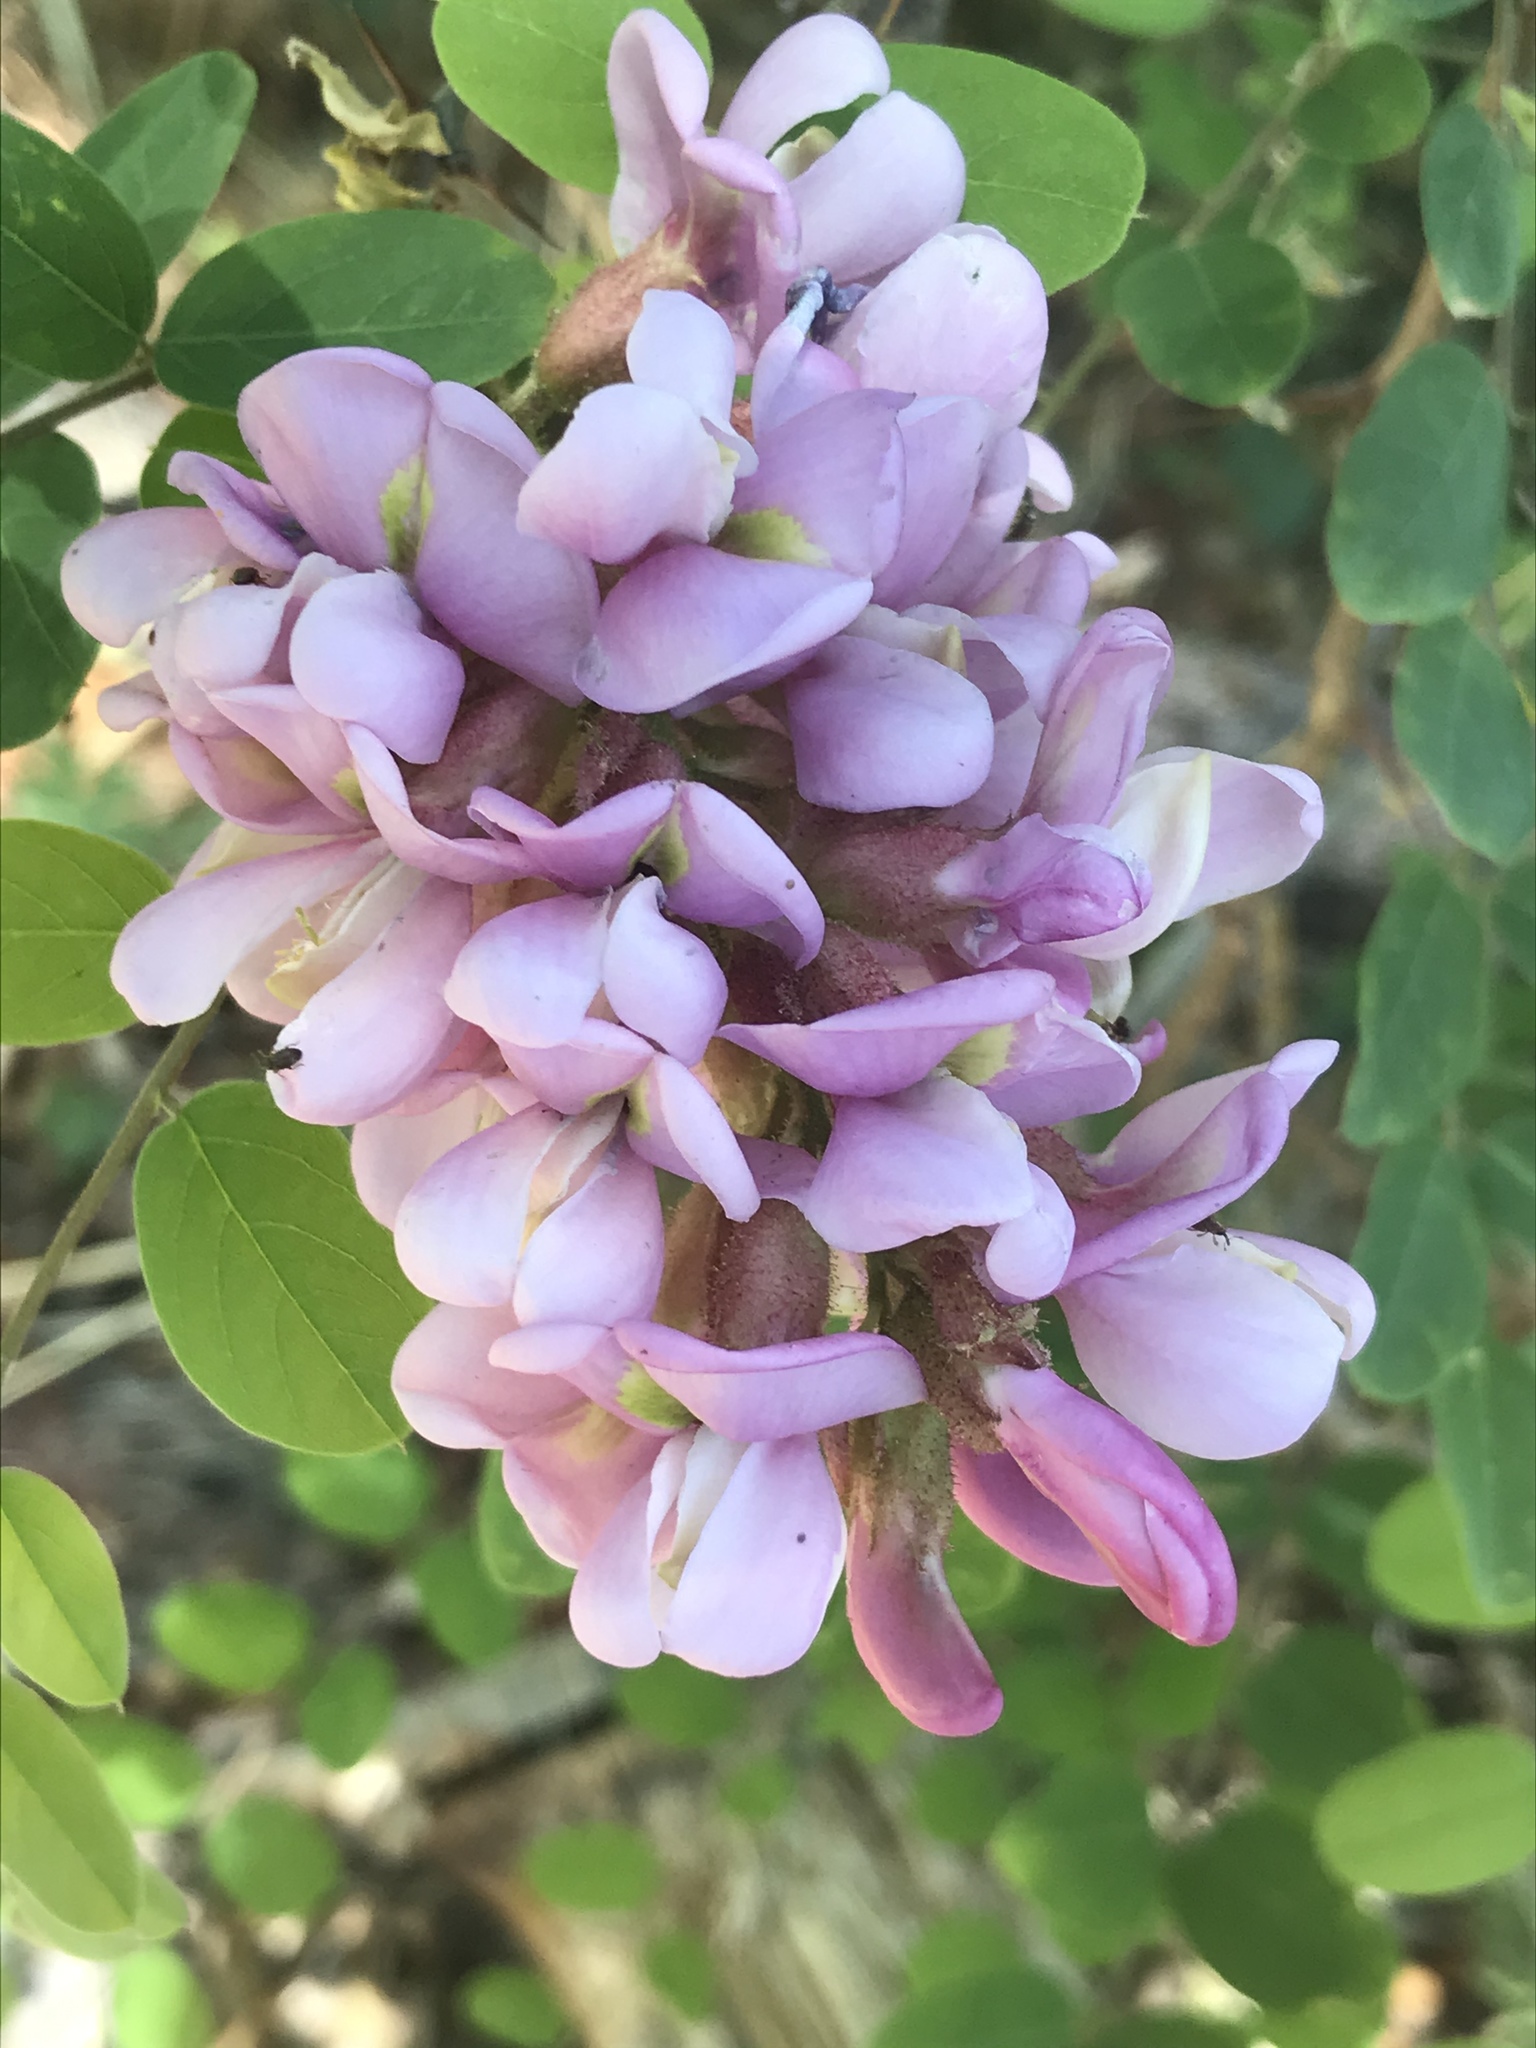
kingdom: Plantae
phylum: Tracheophyta
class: Magnoliopsida
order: Fabales
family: Fabaceae
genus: Robinia
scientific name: Robinia neomexicana
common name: New mexico locust
